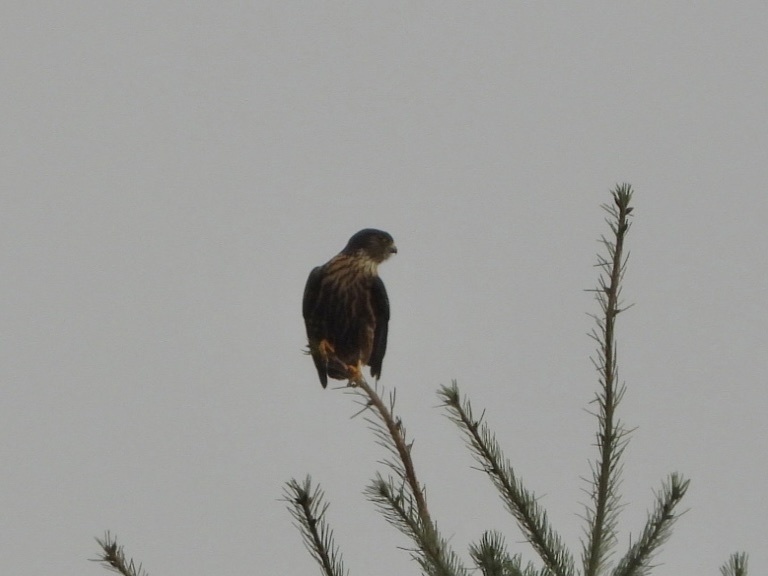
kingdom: Animalia
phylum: Chordata
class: Aves
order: Falconiformes
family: Falconidae
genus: Falco
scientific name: Falco columbarius
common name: Merlin
